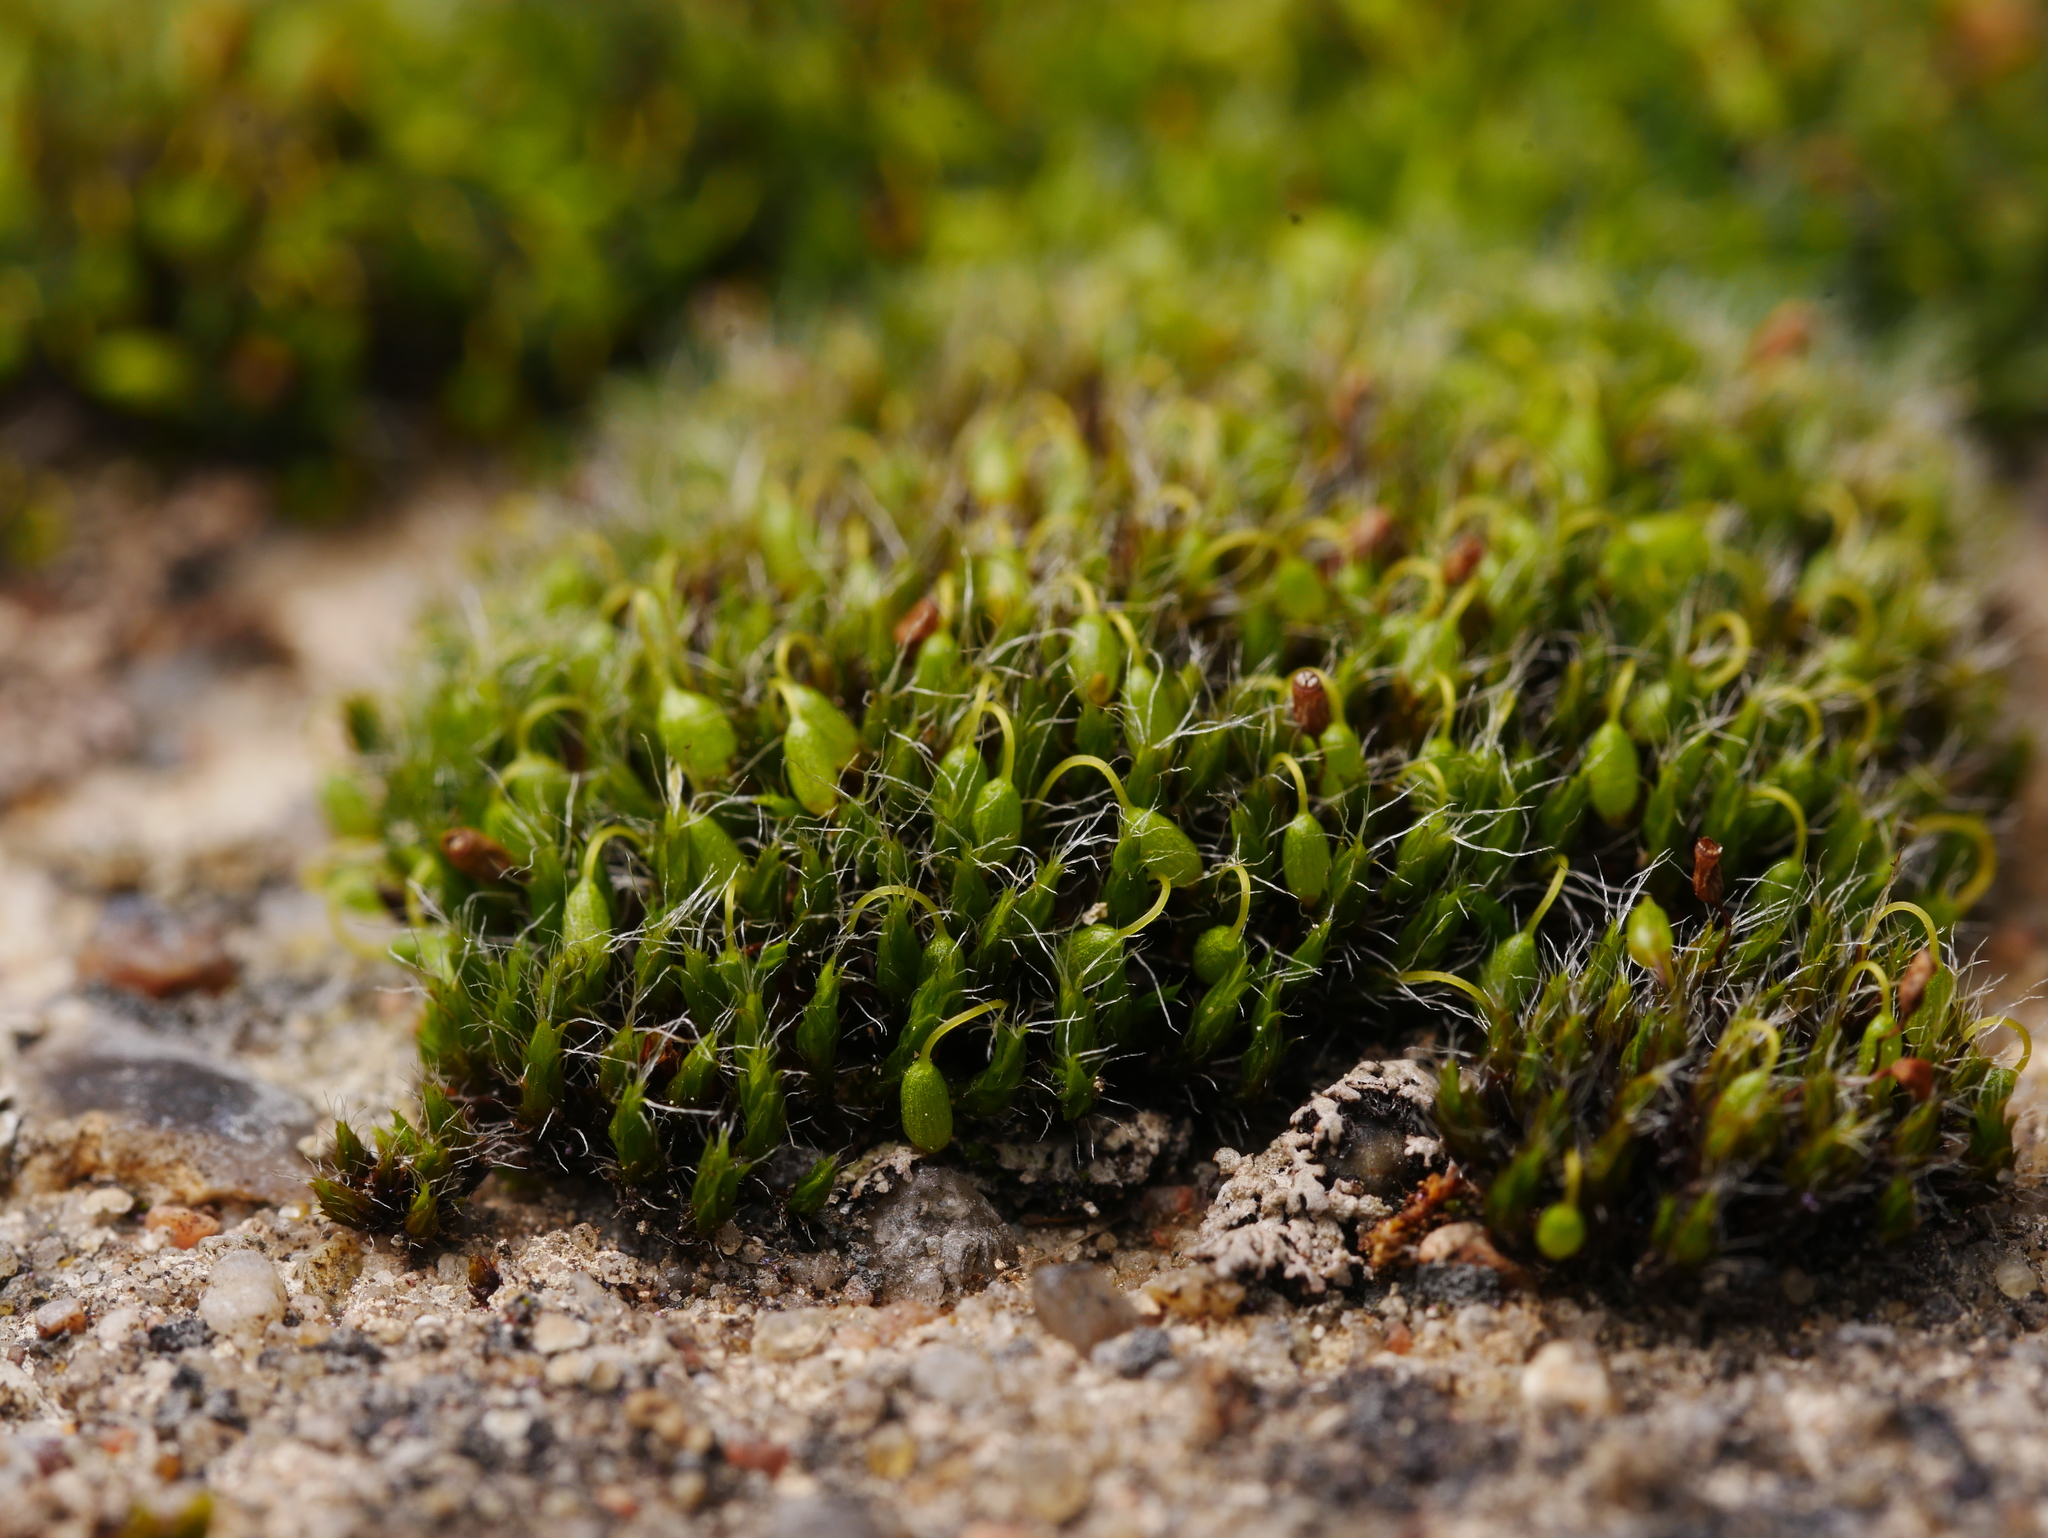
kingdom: Plantae
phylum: Bryophyta
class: Bryopsida
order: Grimmiales
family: Grimmiaceae
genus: Grimmia
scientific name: Grimmia pulvinata
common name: Grey-cushioned grimmia
